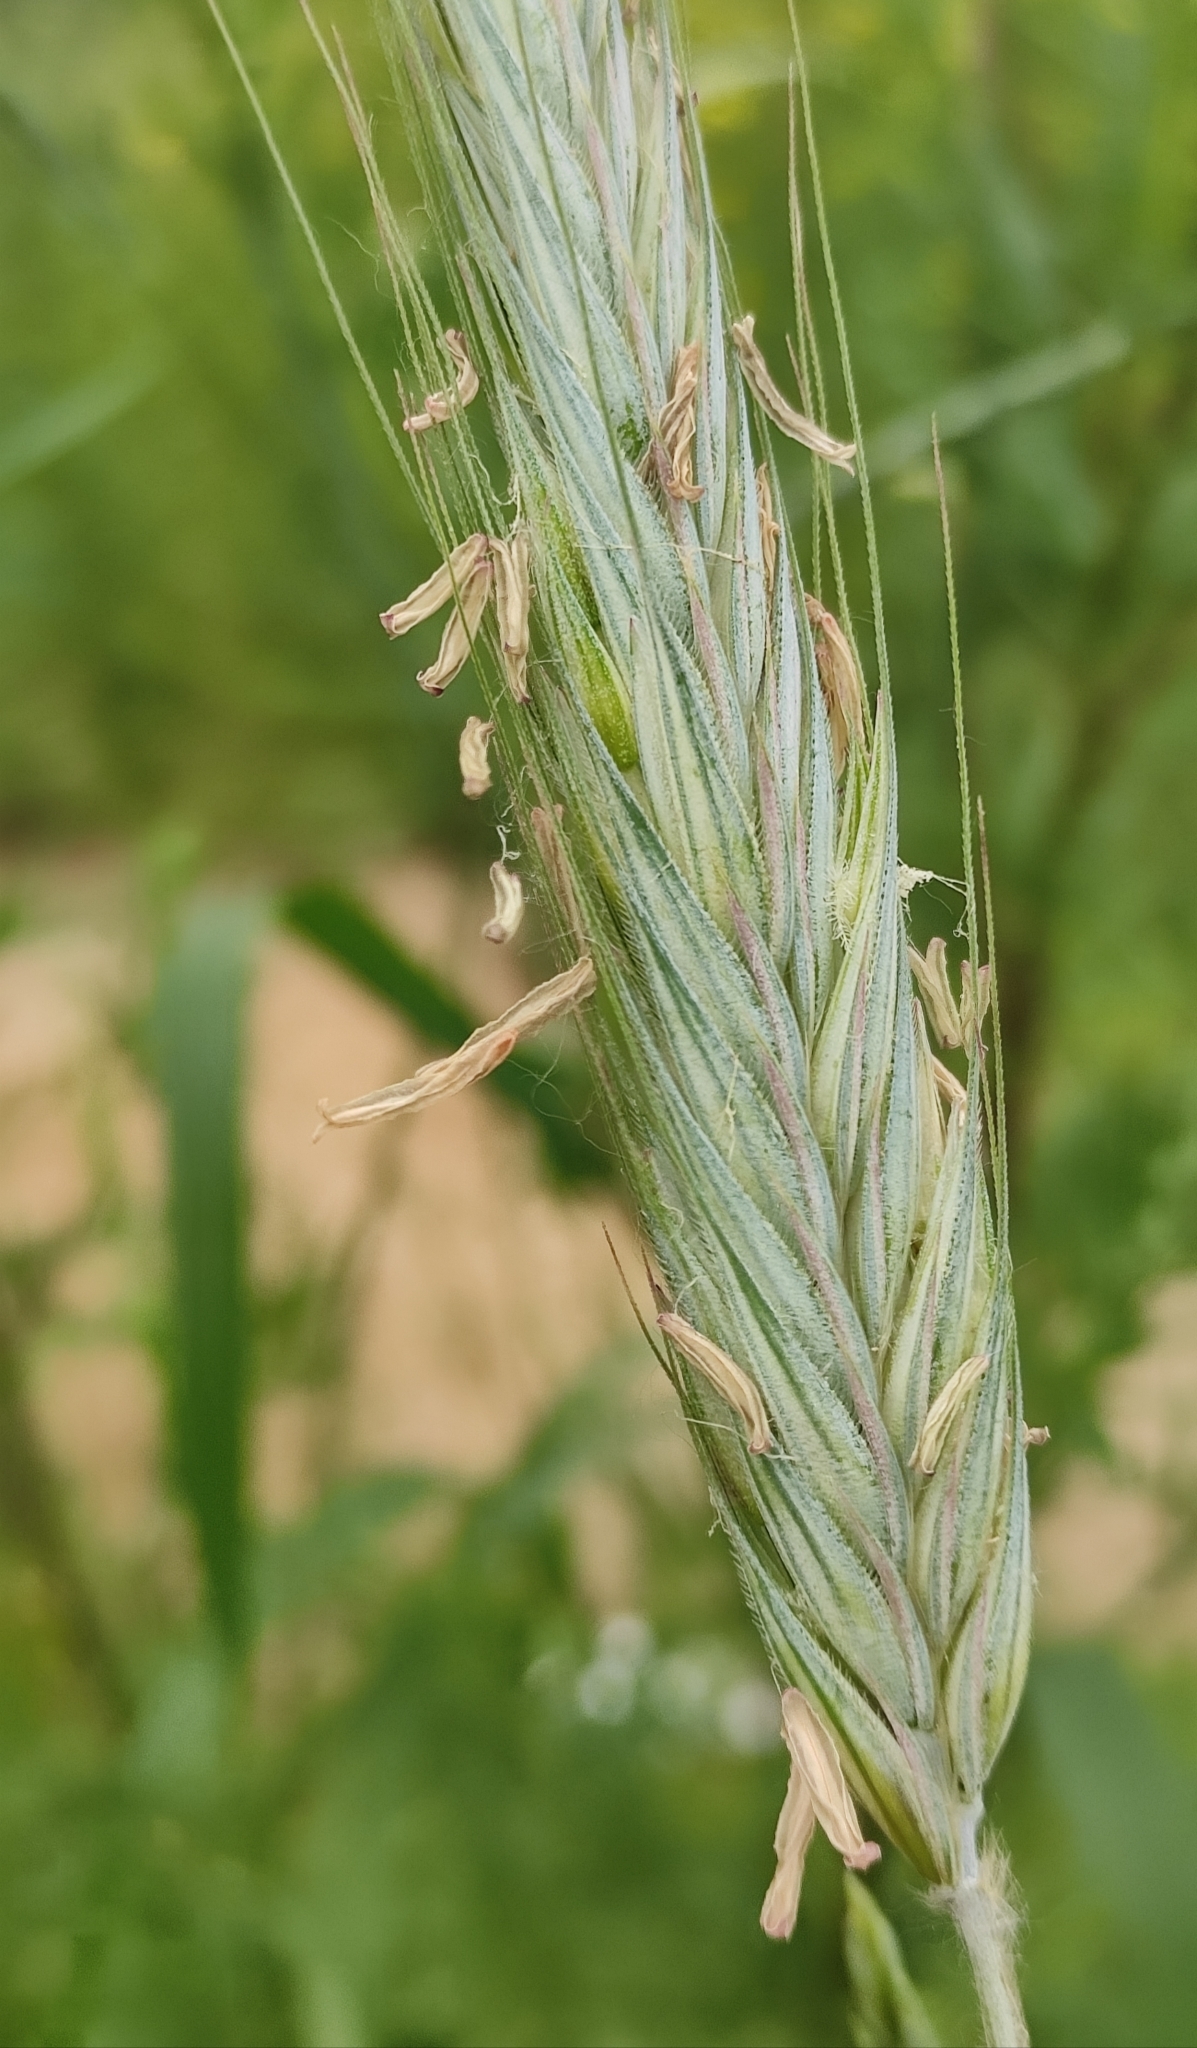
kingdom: Plantae
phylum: Tracheophyta
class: Liliopsida
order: Poales
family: Poaceae
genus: Secale
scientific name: Secale cereale
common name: Rye
